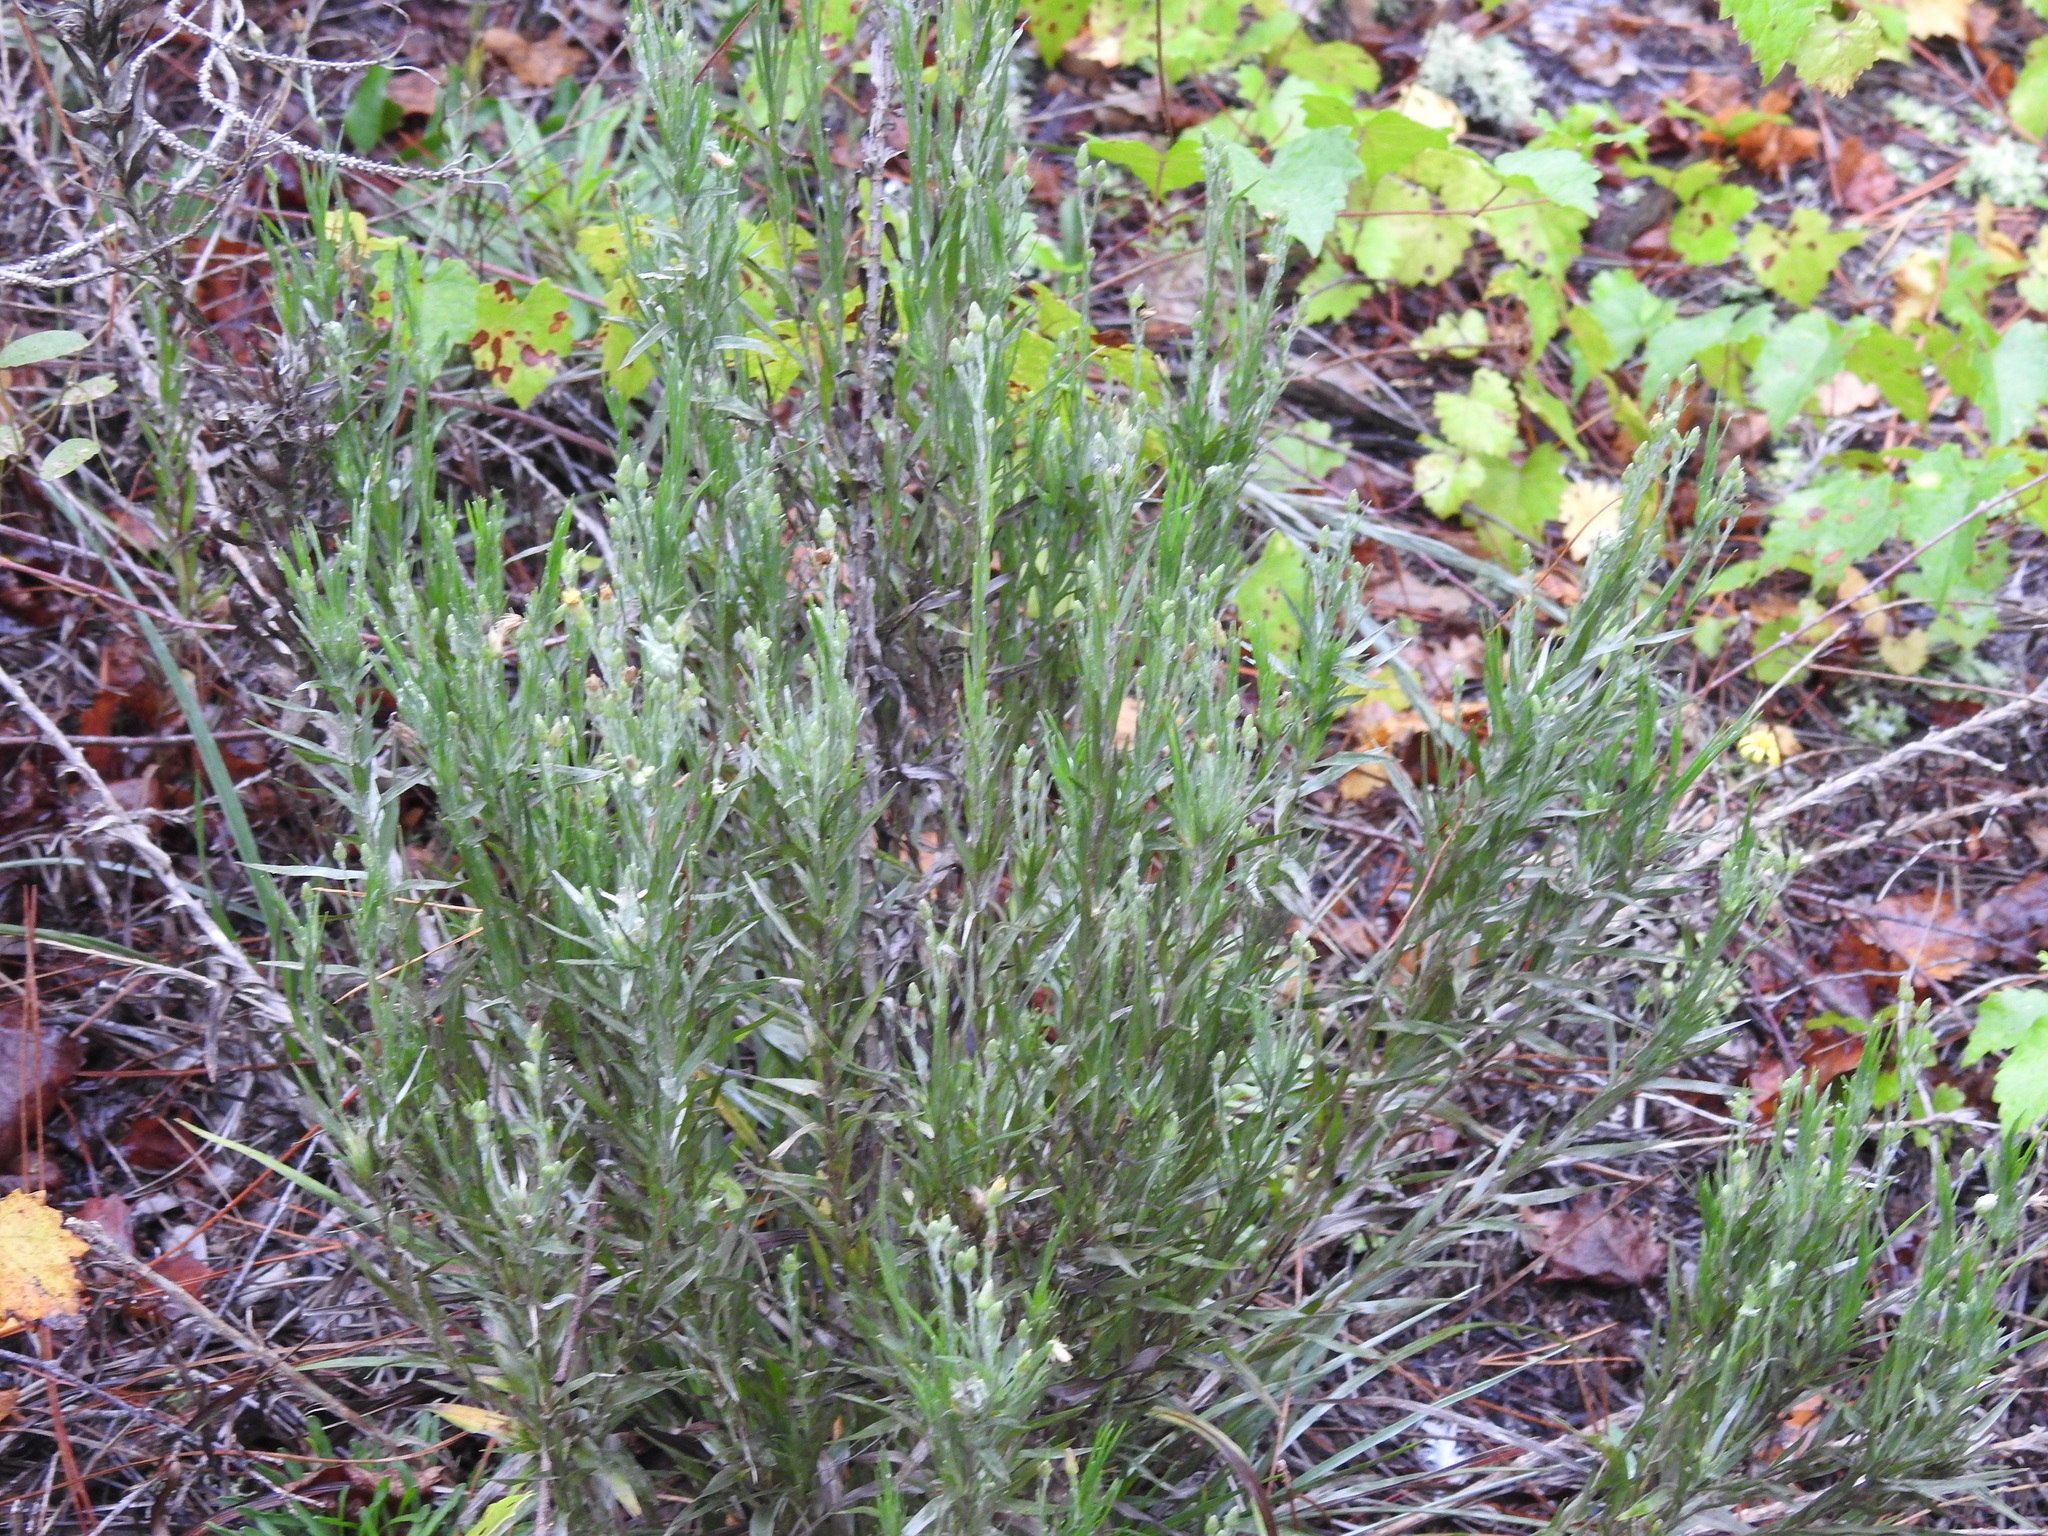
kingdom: Plantae
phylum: Tracheophyta
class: Magnoliopsida
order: Asterales
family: Asteraceae
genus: Pityopsis
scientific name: Pityopsis aequilifolia
